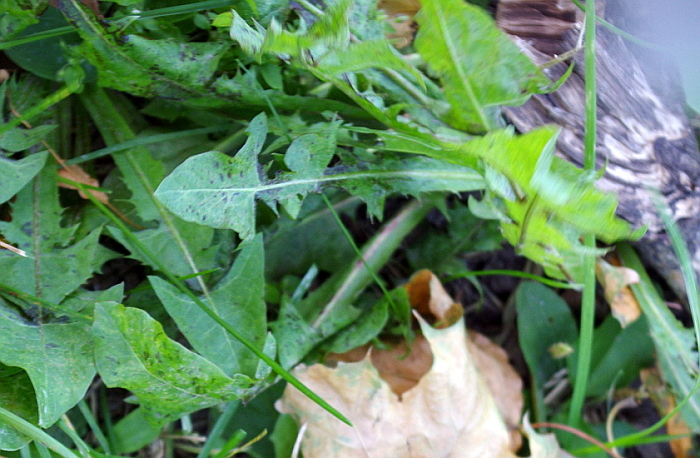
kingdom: Plantae
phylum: Tracheophyta
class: Magnoliopsida
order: Asterales
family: Asteraceae
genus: Taraxacum
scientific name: Taraxacum officinale
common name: Common dandelion
